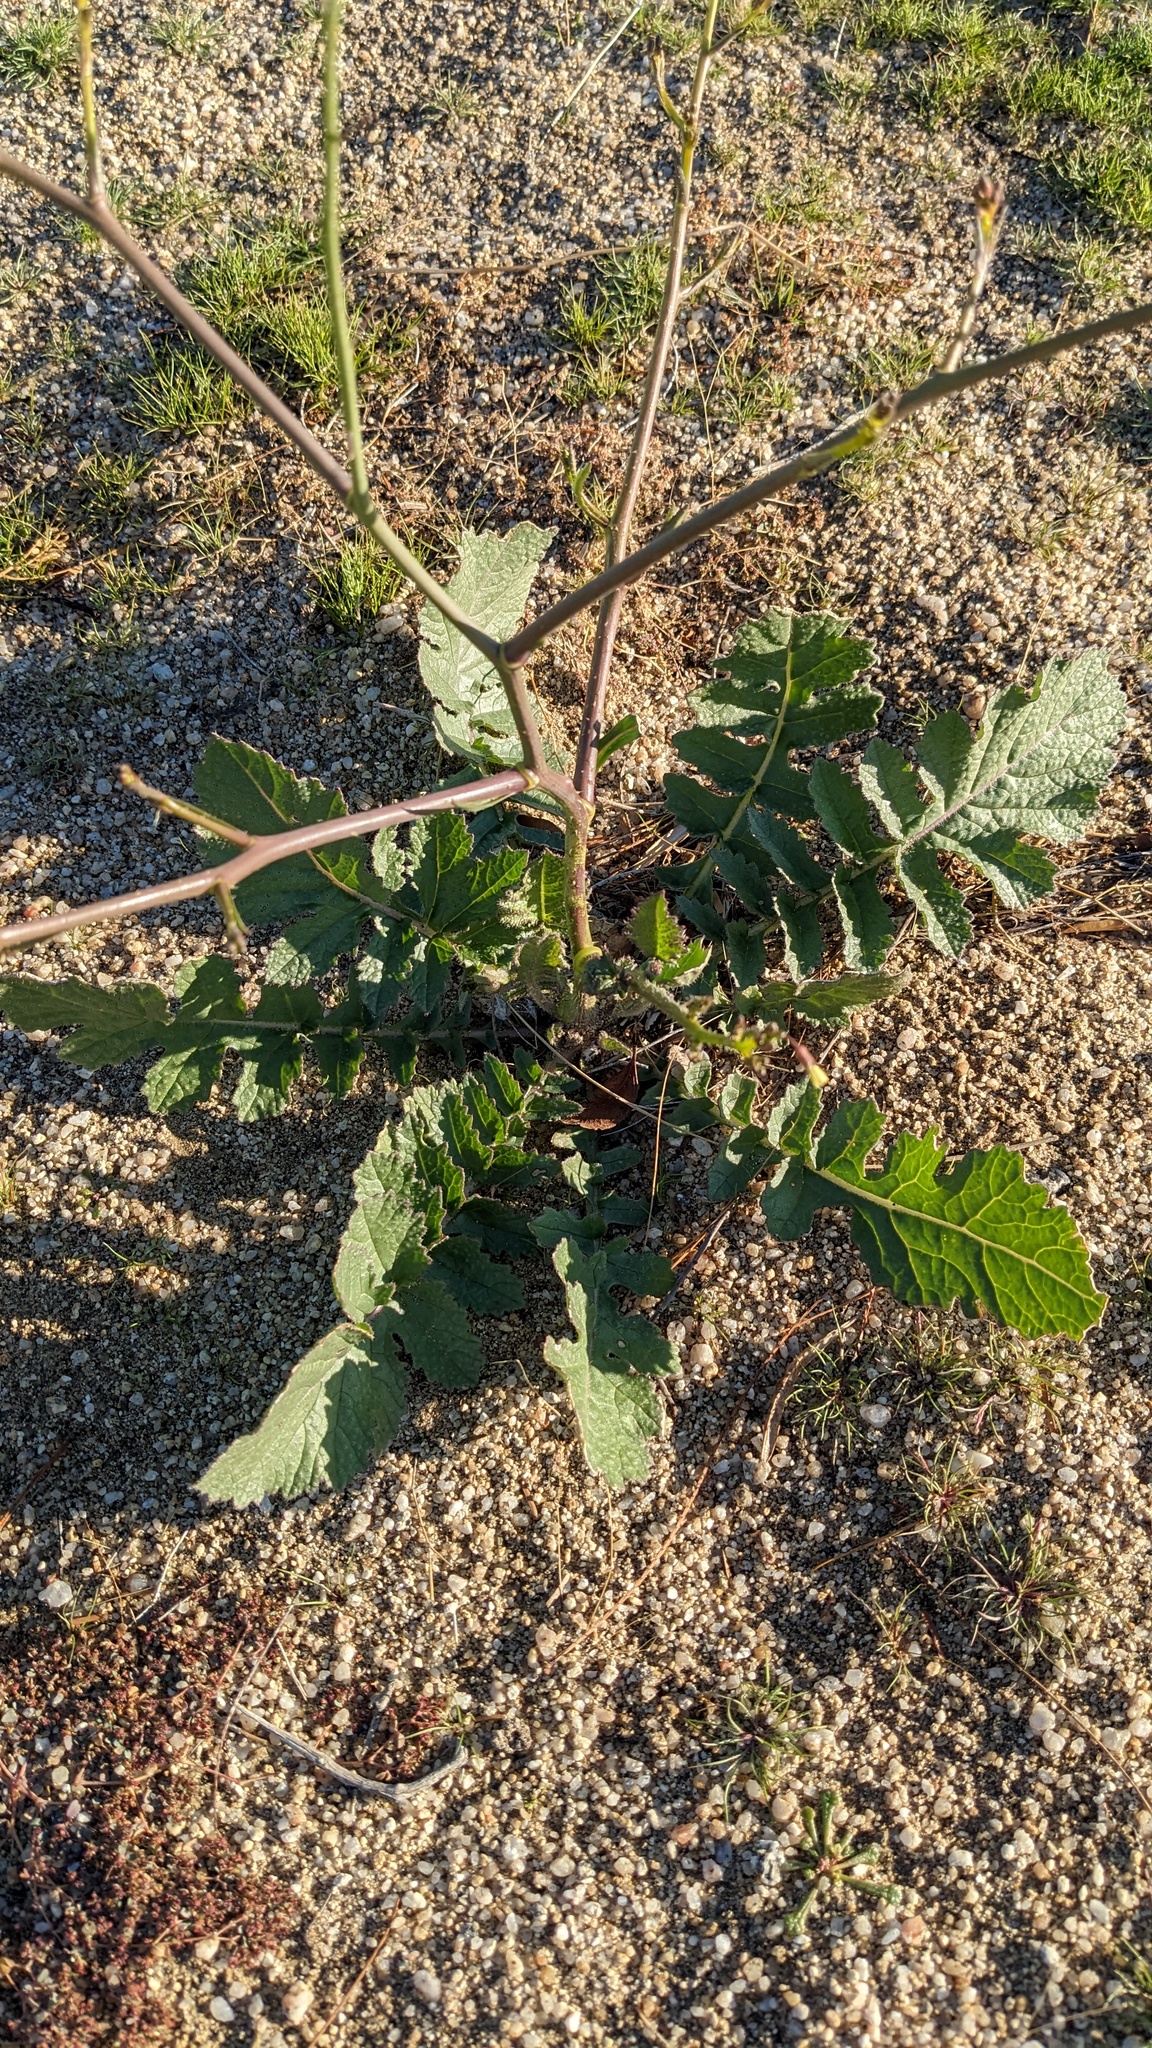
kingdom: Plantae
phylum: Tracheophyta
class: Magnoliopsida
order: Brassicales
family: Brassicaceae
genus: Brassica
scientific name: Brassica tournefortii
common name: Pale cabbage
